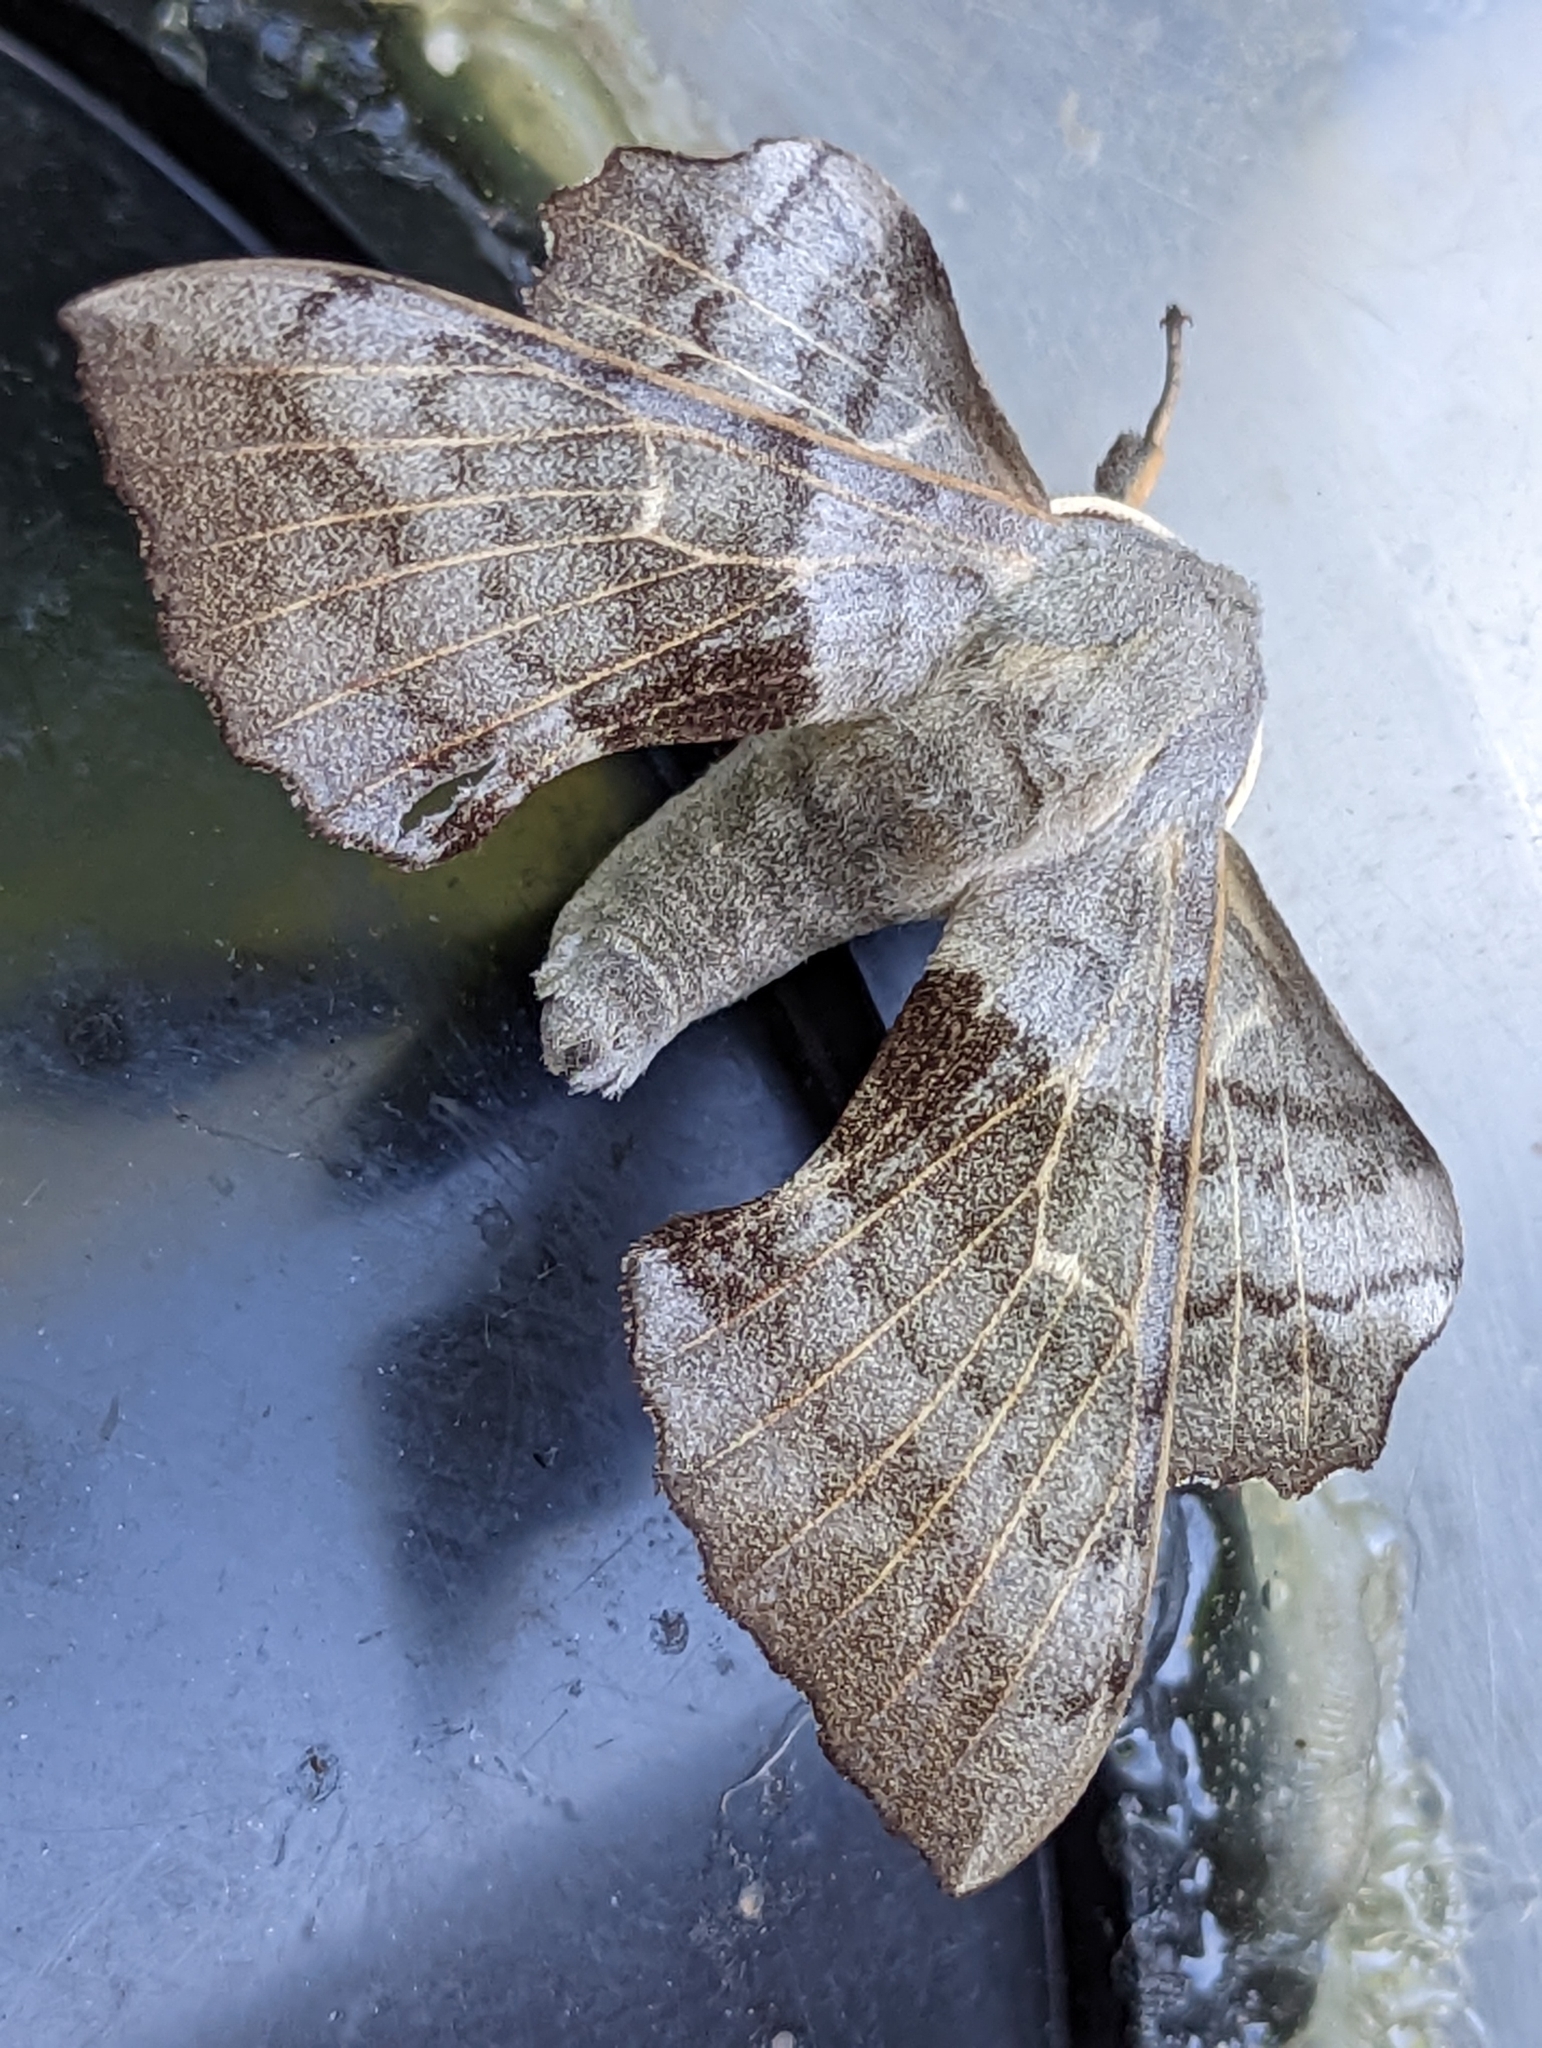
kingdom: Animalia
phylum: Arthropoda
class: Insecta
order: Lepidoptera
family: Sphingidae
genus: Laothoe
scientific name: Laothoe populi
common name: Poplar hawk-moth
